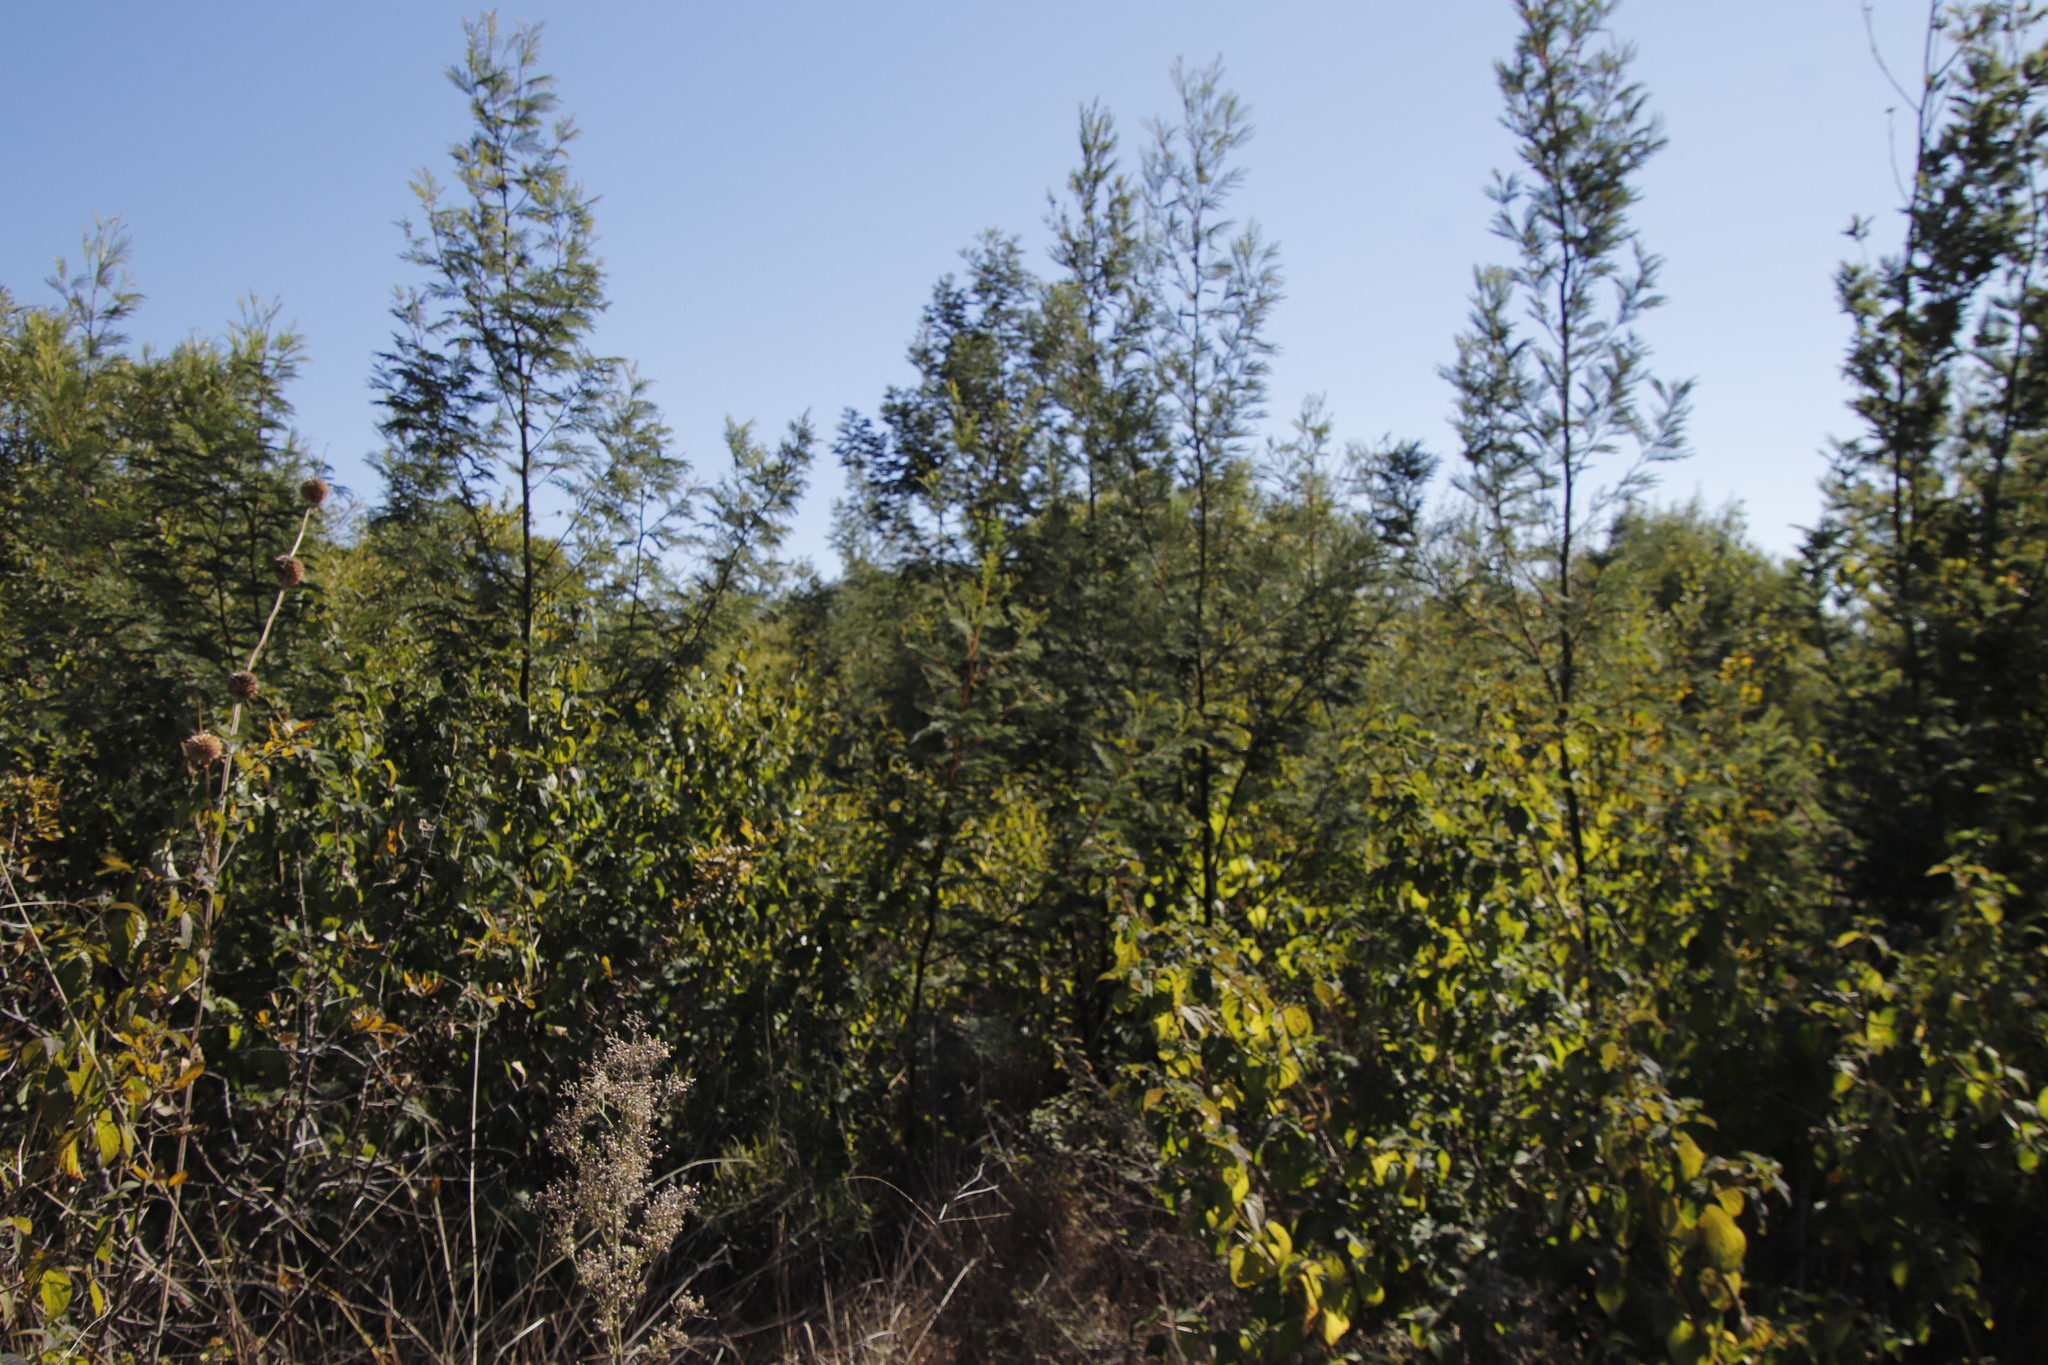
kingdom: Plantae
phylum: Tracheophyta
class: Magnoliopsida
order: Fabales
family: Fabaceae
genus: Acacia
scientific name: Acacia decurrens
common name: Green wattle
